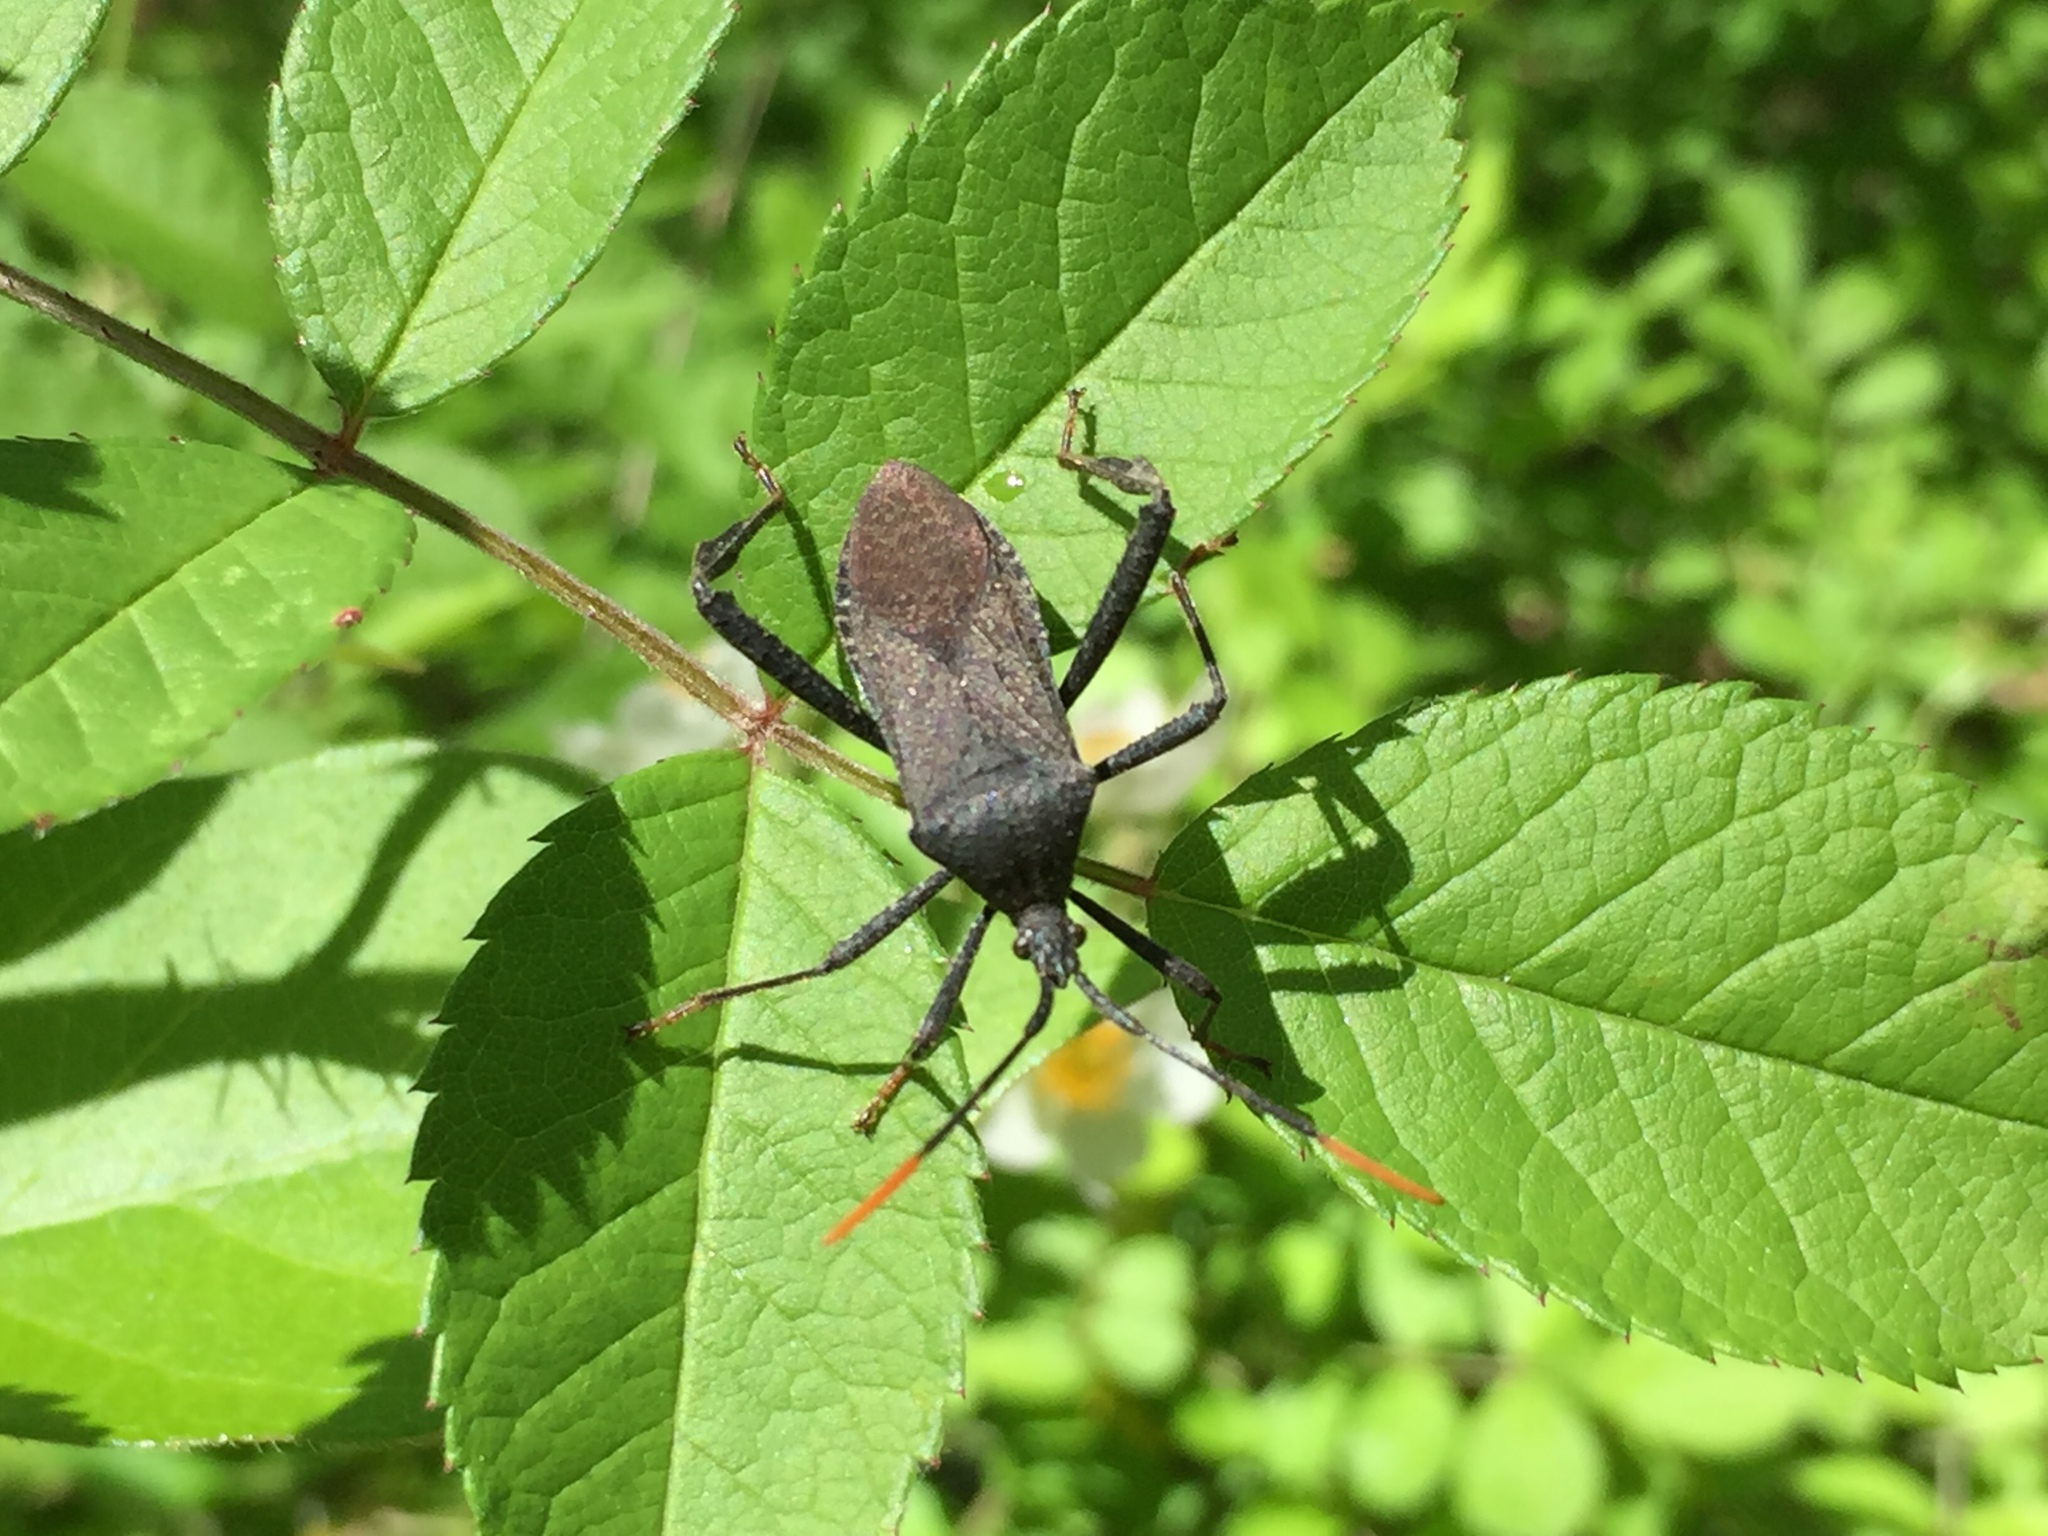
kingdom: Animalia
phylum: Arthropoda
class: Insecta
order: Hemiptera
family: Coreidae
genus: Acanthocephala
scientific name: Acanthocephala terminalis
